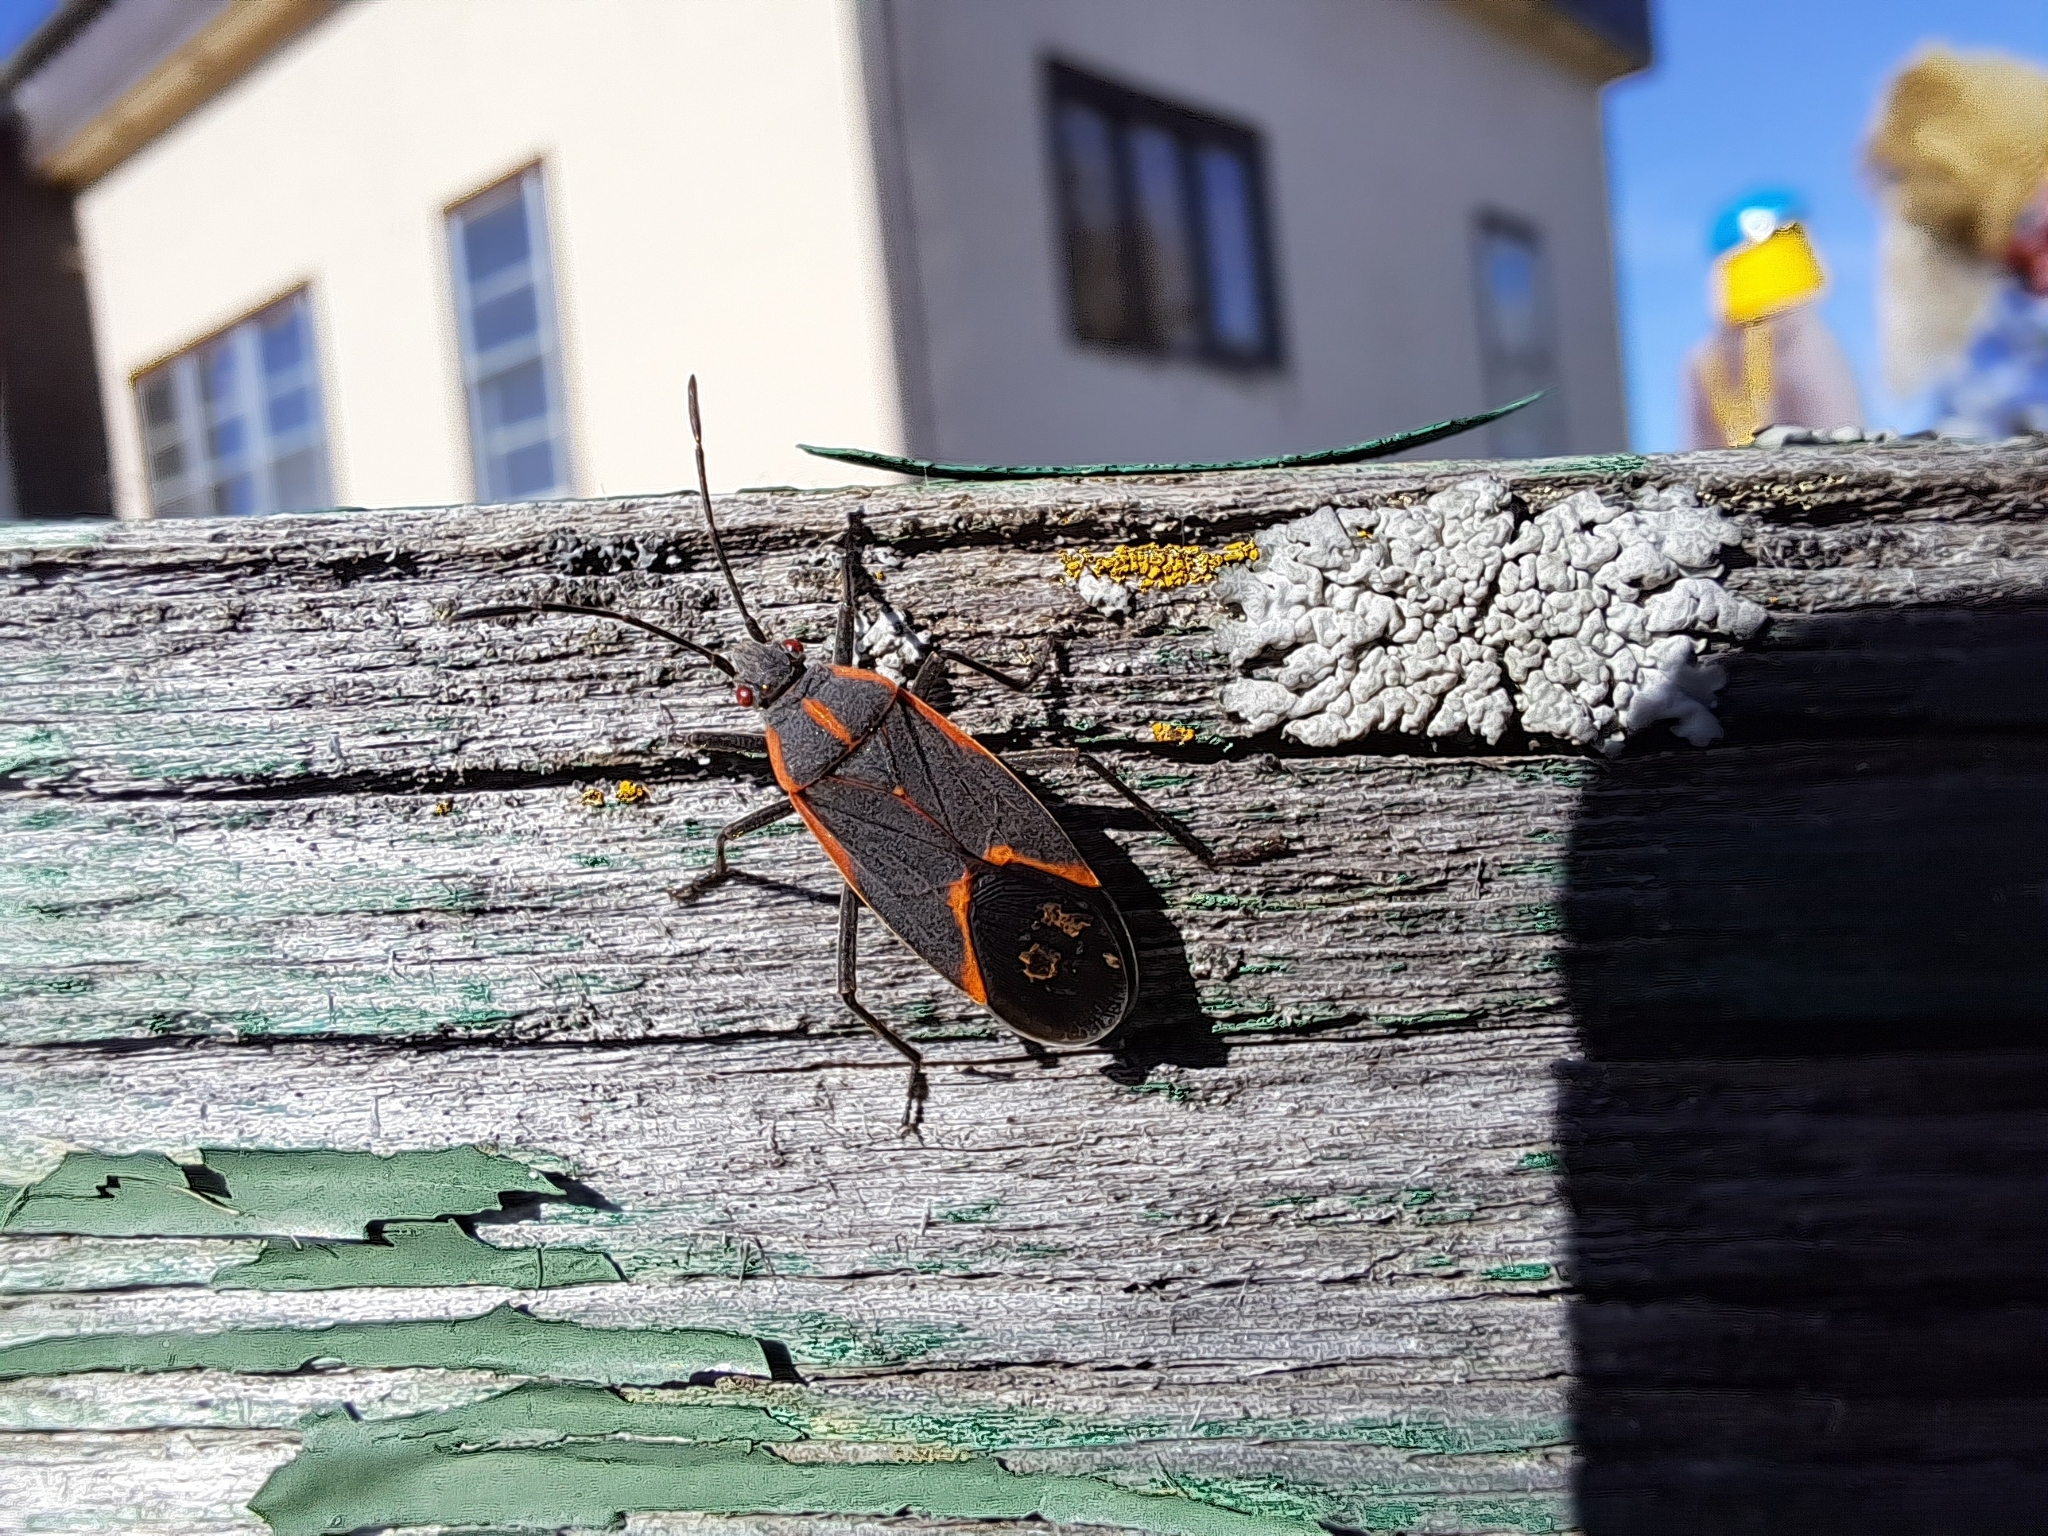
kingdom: Animalia
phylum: Arthropoda
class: Insecta
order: Hemiptera
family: Rhopalidae
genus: Boisea
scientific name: Boisea trivittata
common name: Boxelder bug
